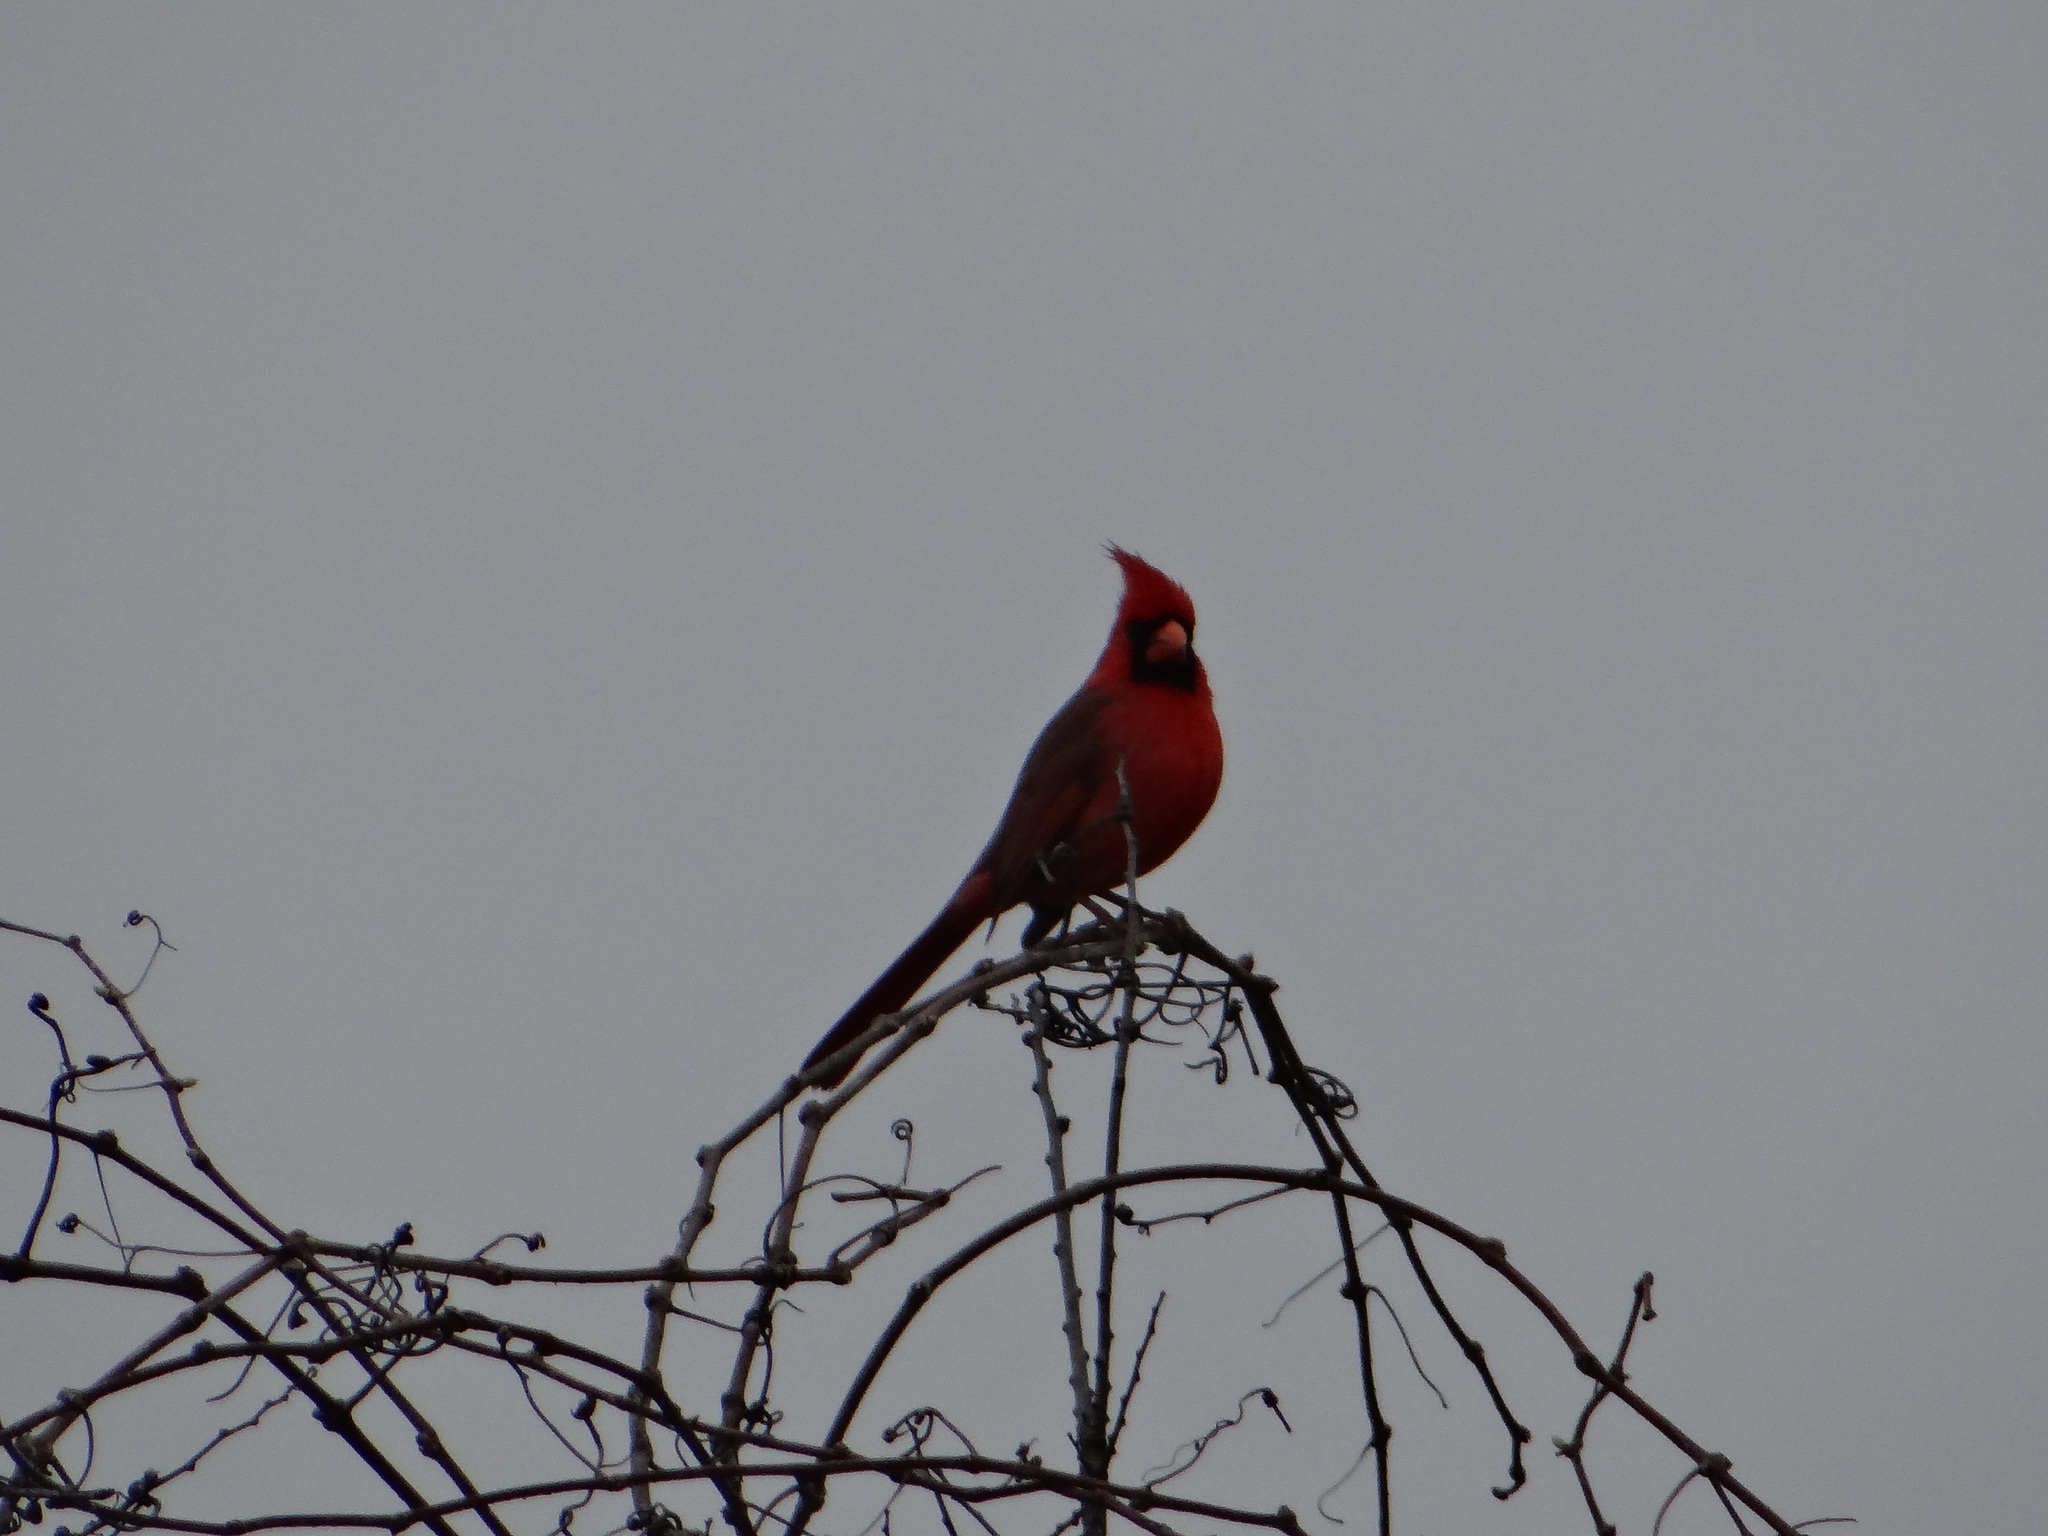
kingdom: Animalia
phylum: Chordata
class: Aves
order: Passeriformes
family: Cardinalidae
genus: Cardinalis
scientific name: Cardinalis cardinalis
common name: Northern cardinal
